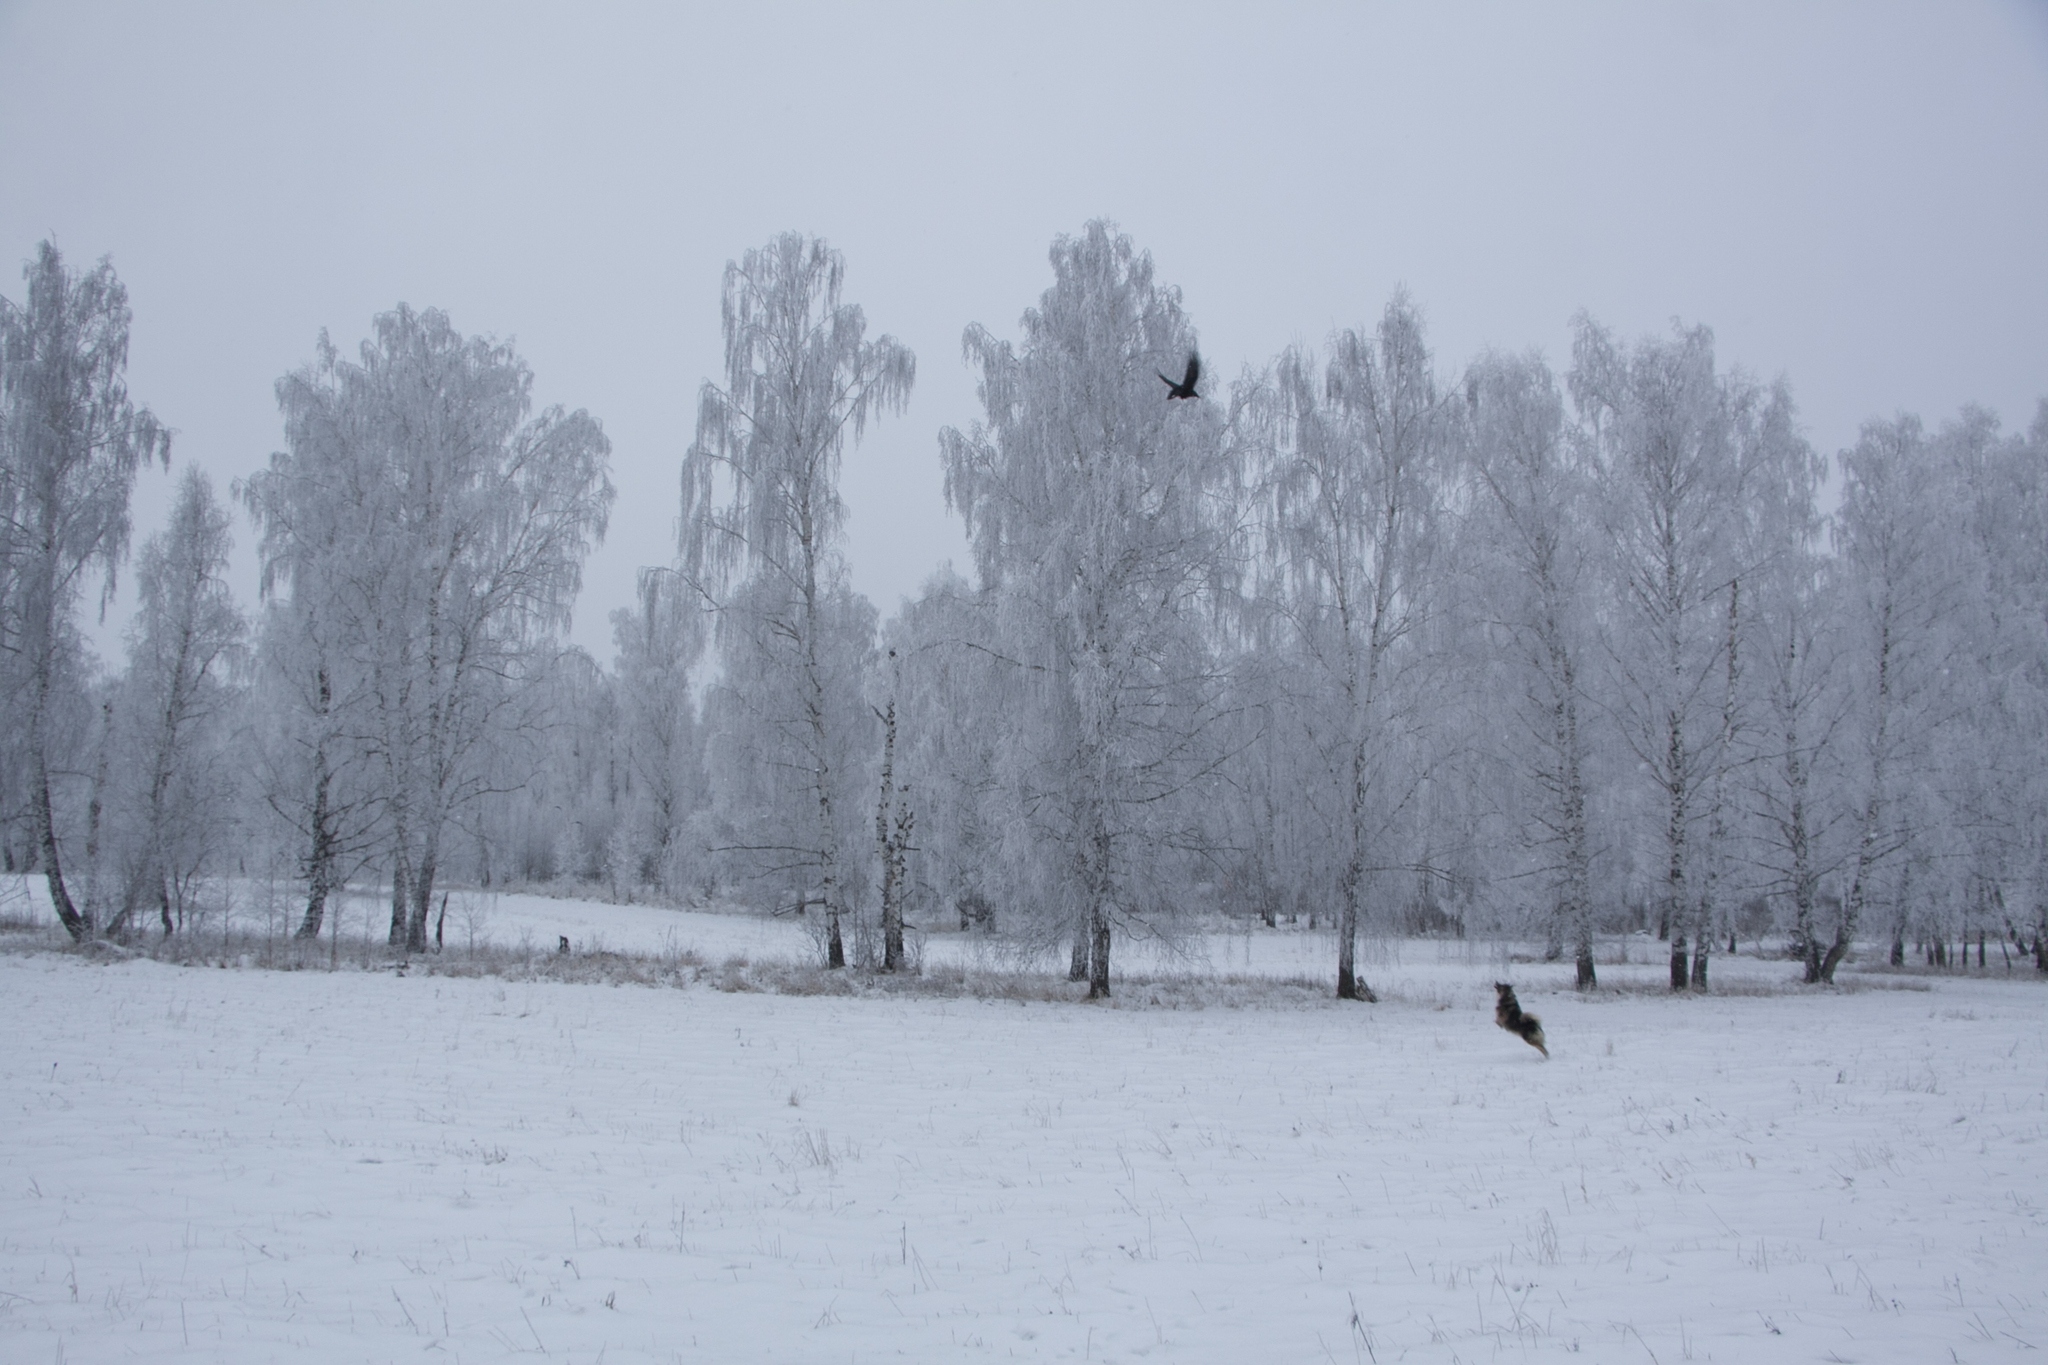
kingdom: Animalia
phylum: Chordata
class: Aves
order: Passeriformes
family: Corvidae
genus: Corvus
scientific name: Corvus corax
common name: Common raven
